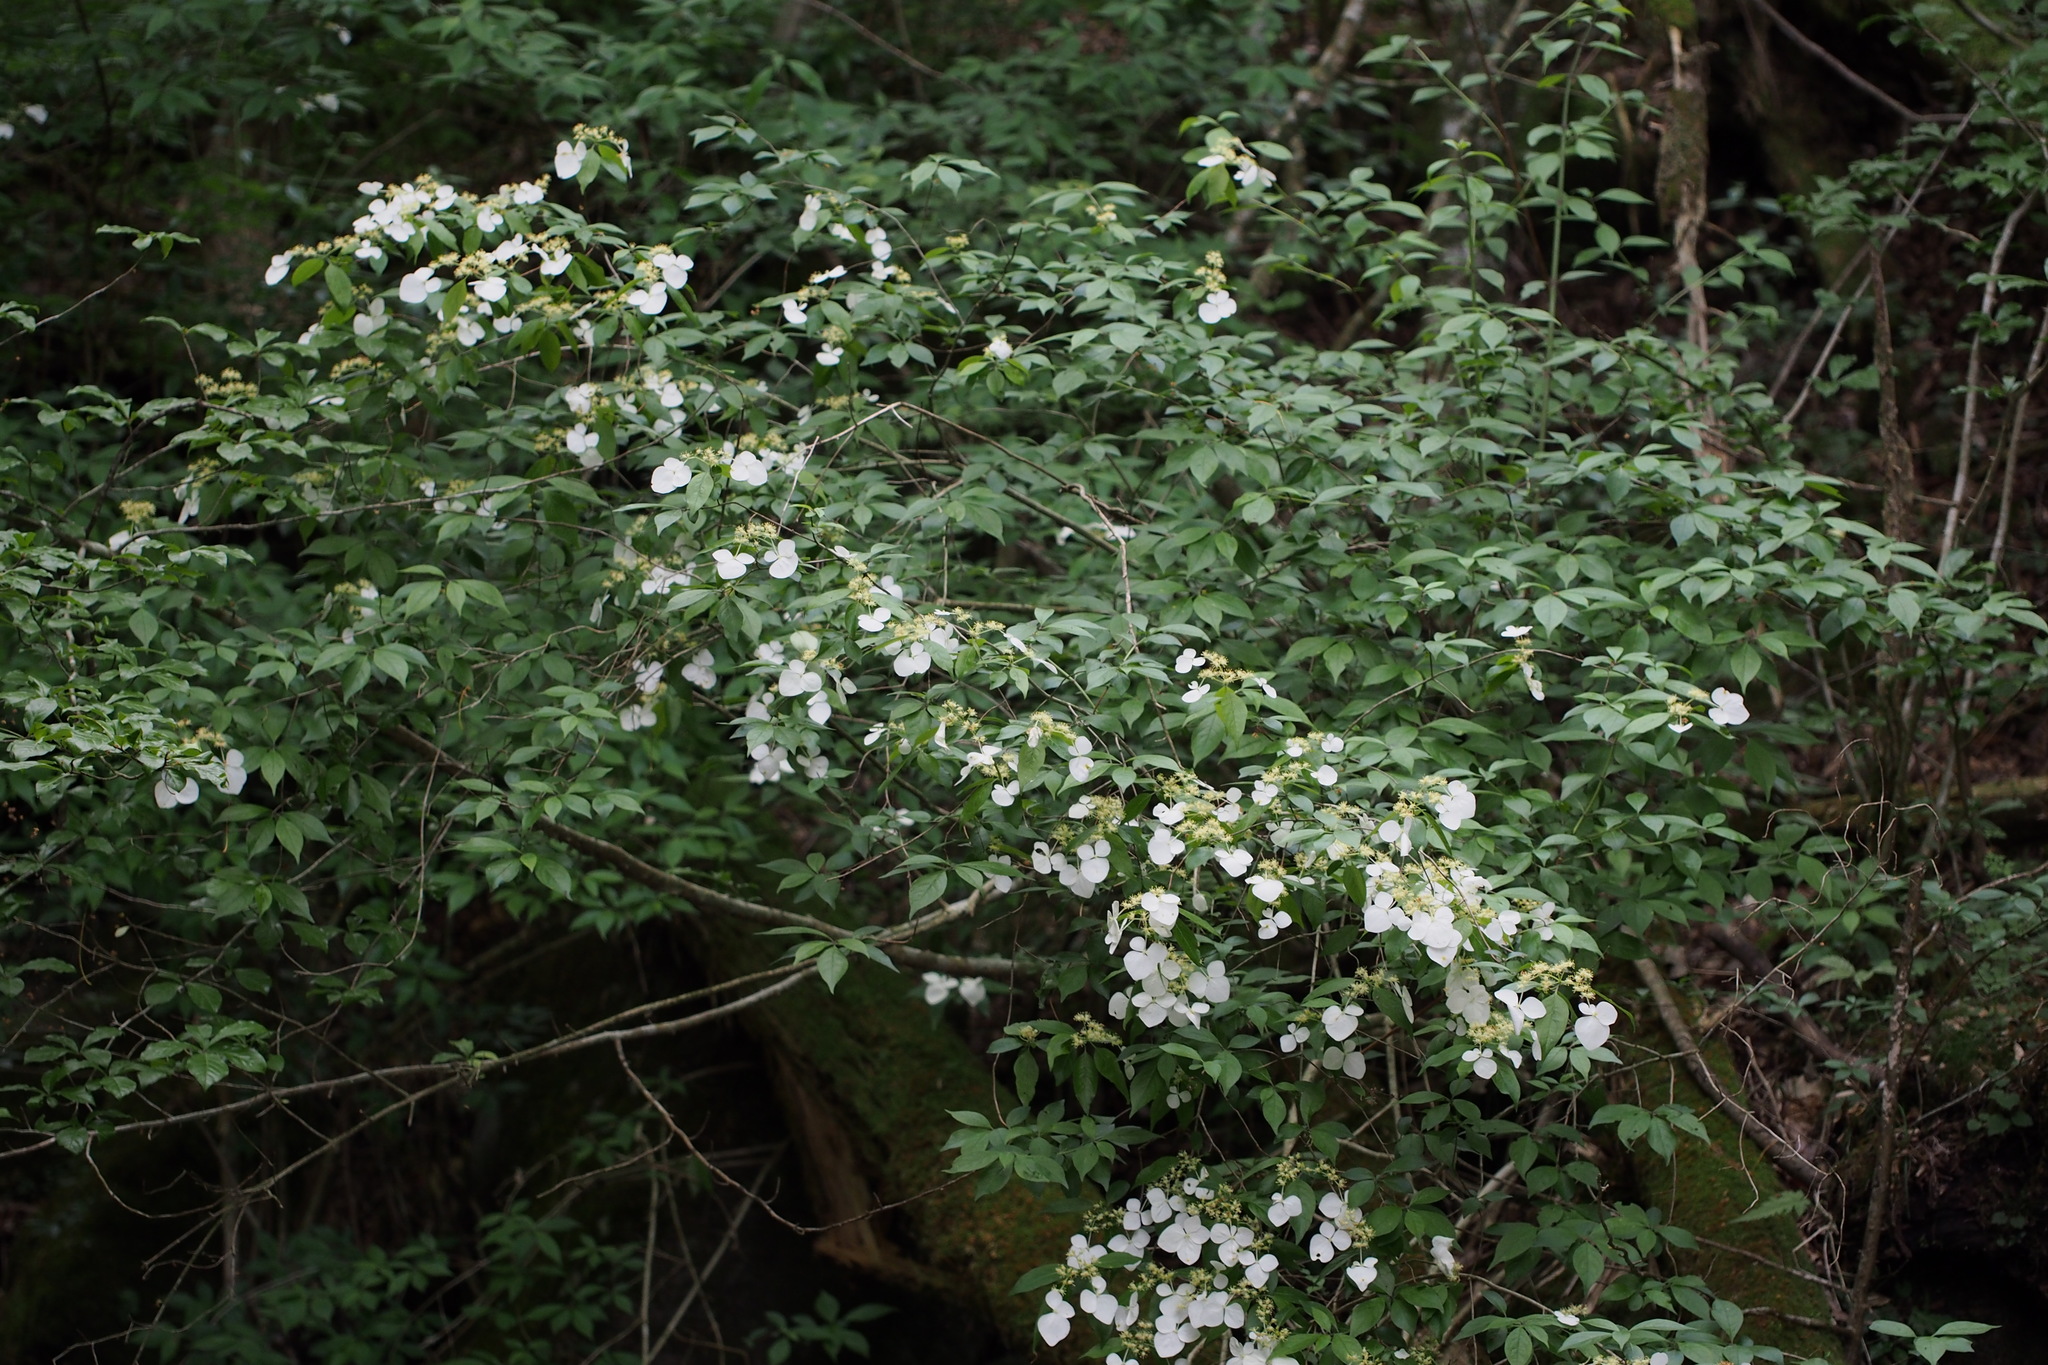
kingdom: Plantae
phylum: Tracheophyta
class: Magnoliopsida
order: Cornales
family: Hydrangeaceae
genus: Hydrangea
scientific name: Hydrangea scandens
